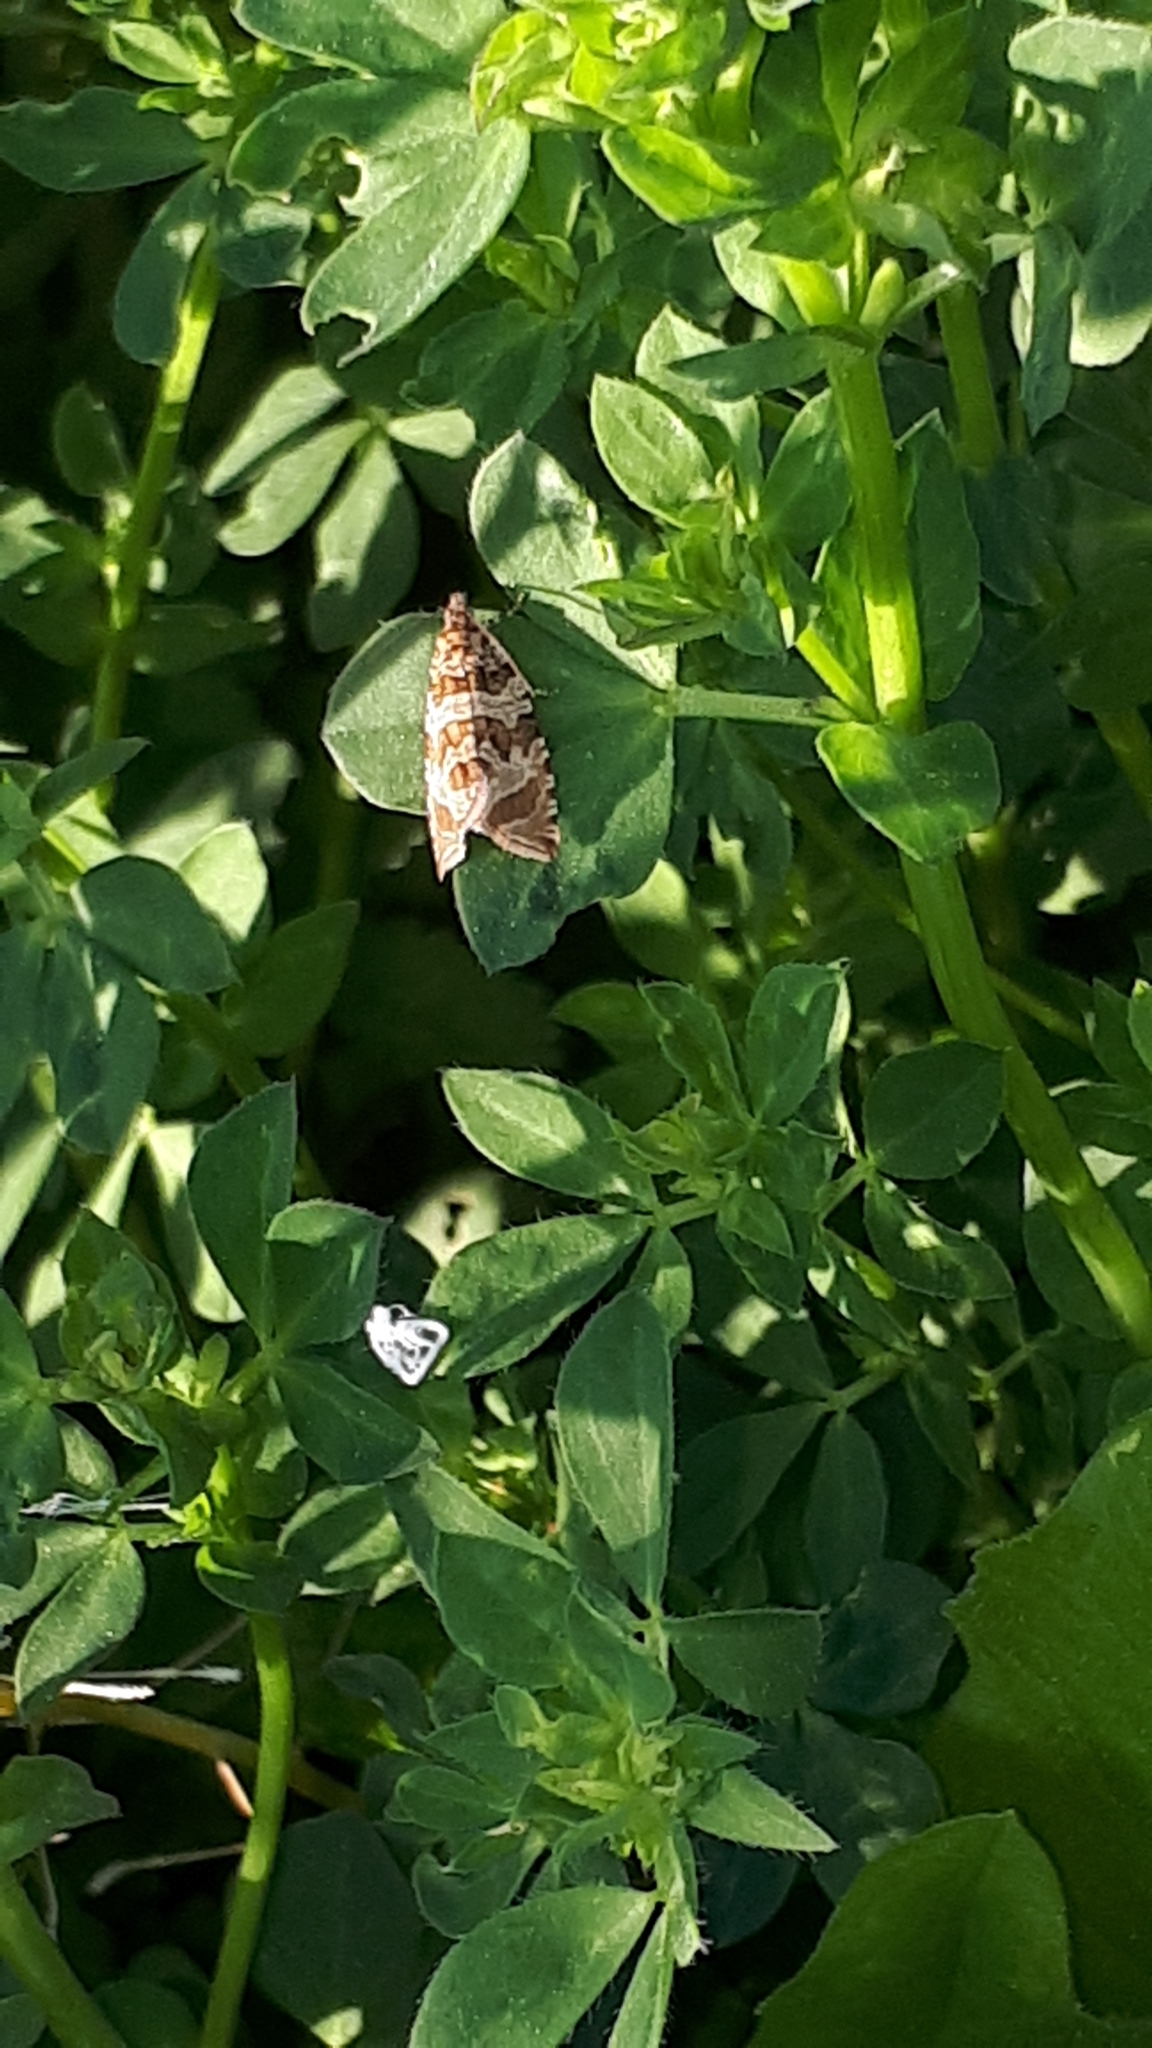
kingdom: Animalia
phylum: Arthropoda
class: Insecta
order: Lepidoptera
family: Tortricidae
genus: Syricoris
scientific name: Syricoris rivulana
